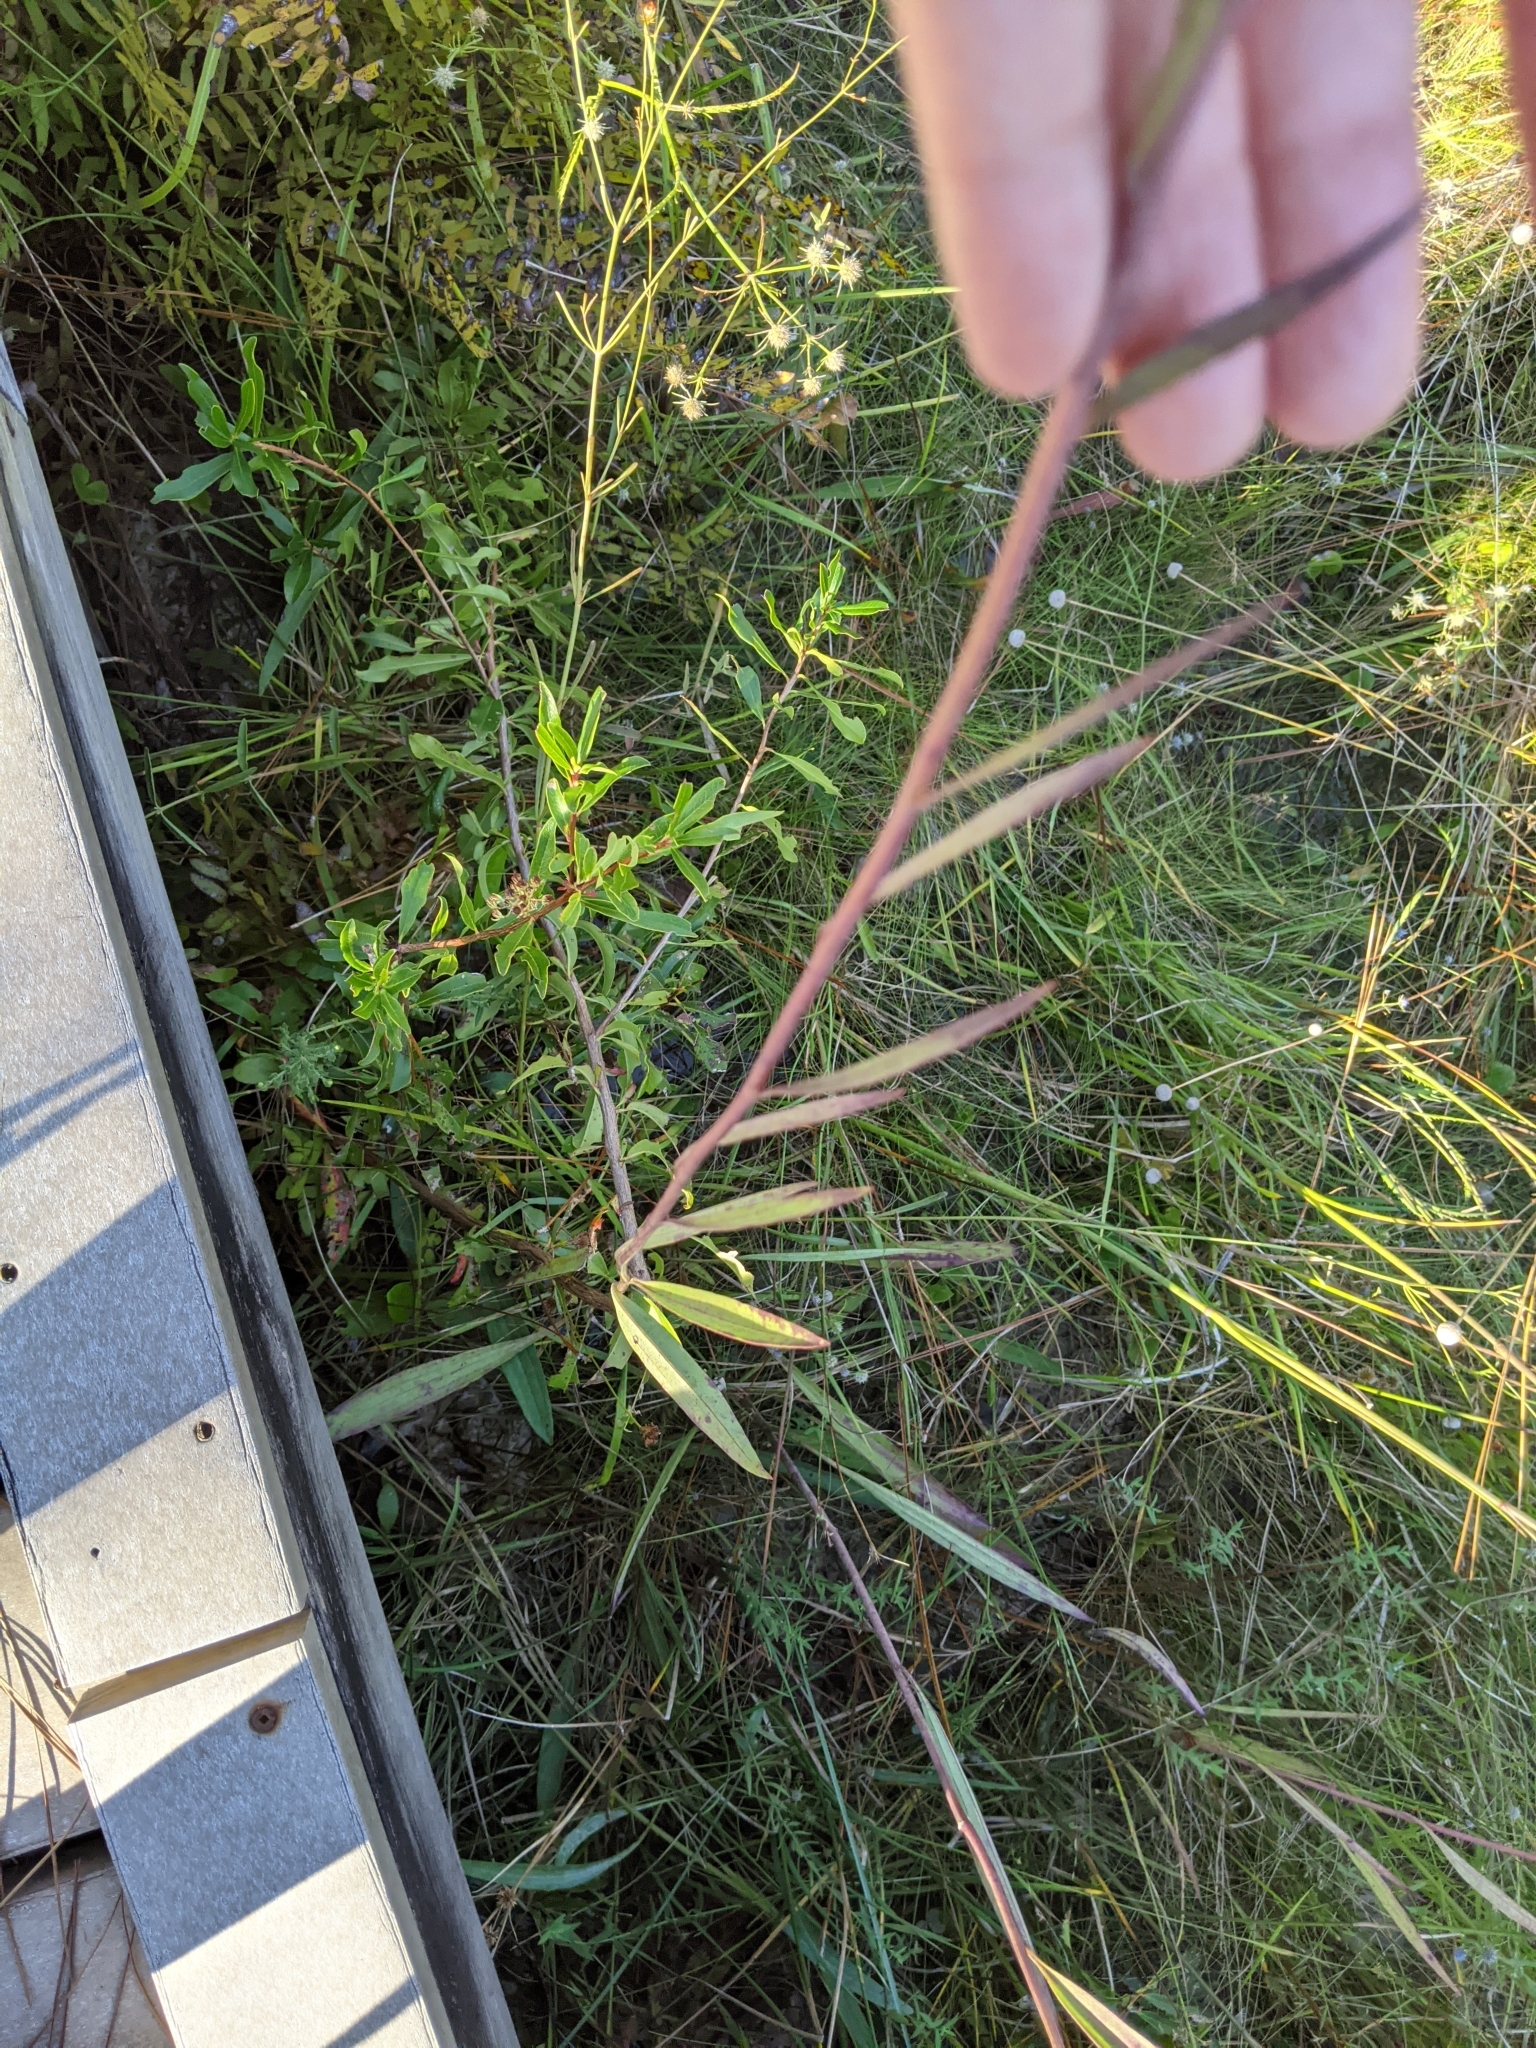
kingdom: Plantae
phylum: Tracheophyta
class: Magnoliopsida
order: Asterales
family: Asteraceae
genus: Arnoglossum
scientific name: Arnoglossum ovatum
